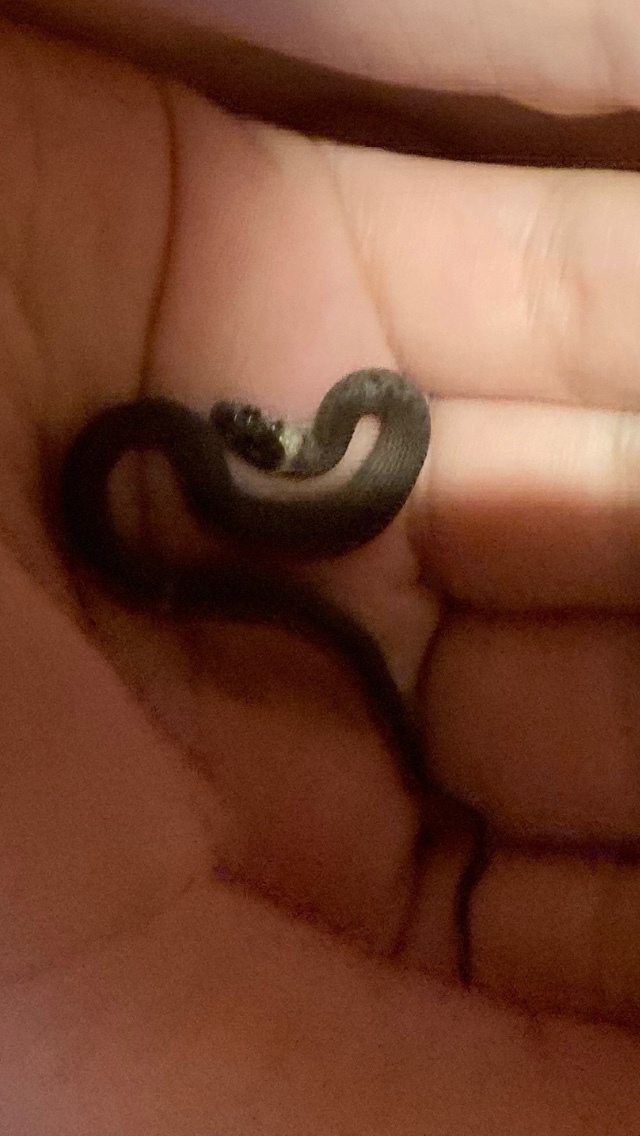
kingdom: Animalia
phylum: Chordata
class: Squamata
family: Colubridae
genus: Storeria
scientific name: Storeria dekayi
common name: (dekay’s) brown snake
